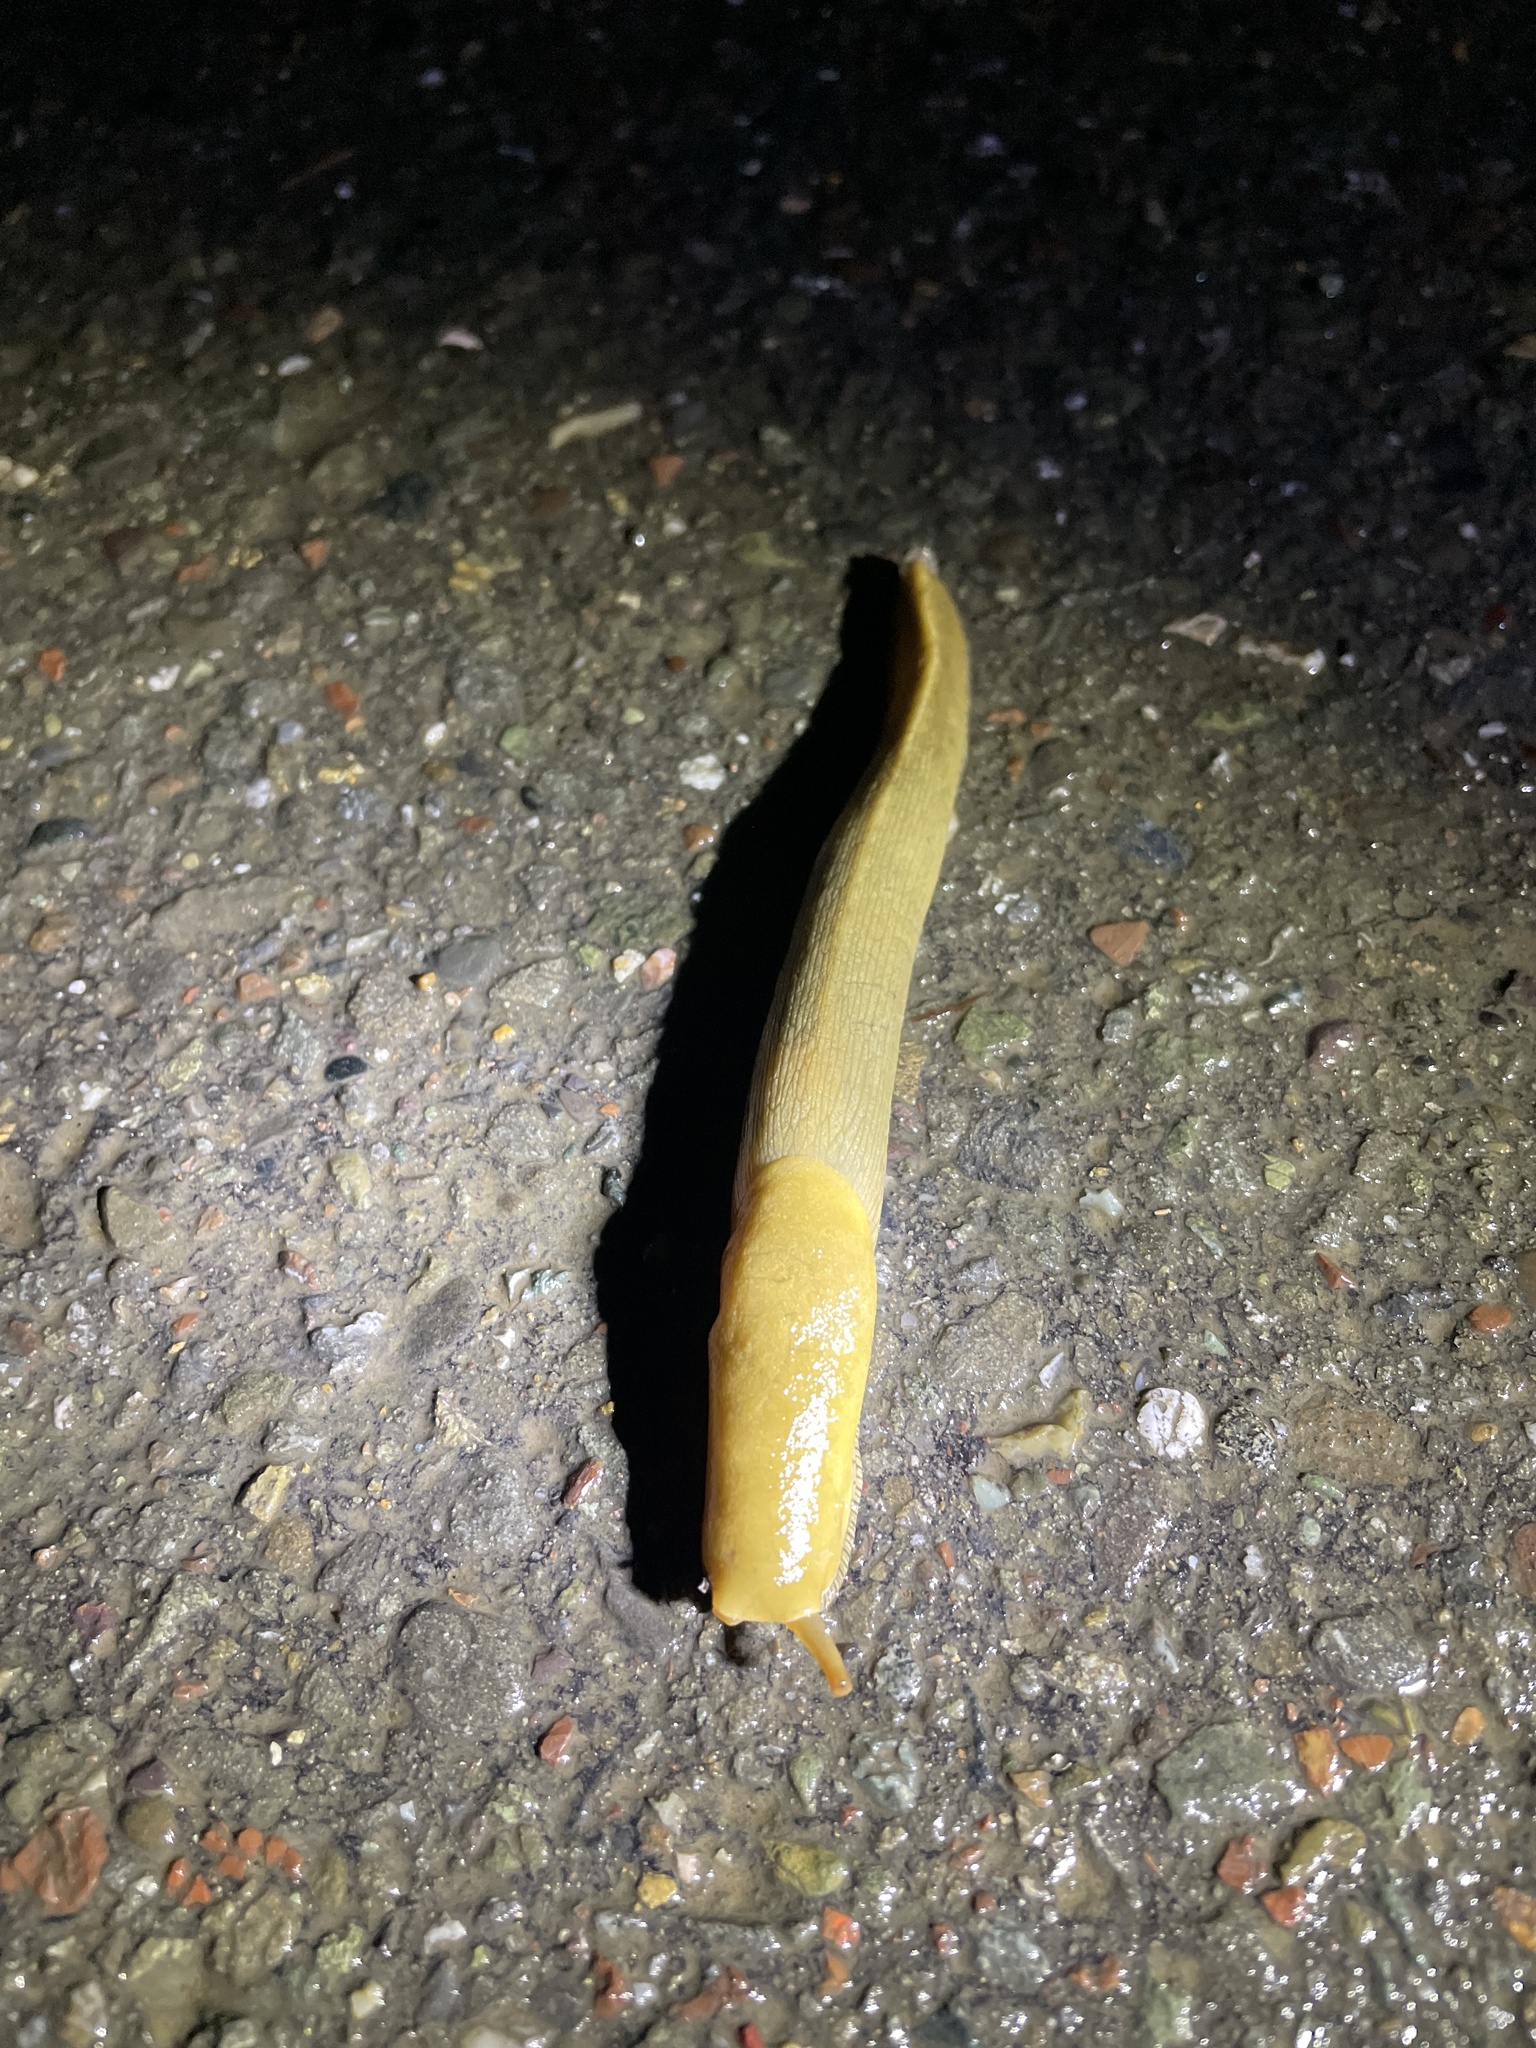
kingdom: Animalia
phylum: Mollusca
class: Gastropoda
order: Stylommatophora
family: Ariolimacidae
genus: Ariolimax
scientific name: Ariolimax buttoni
